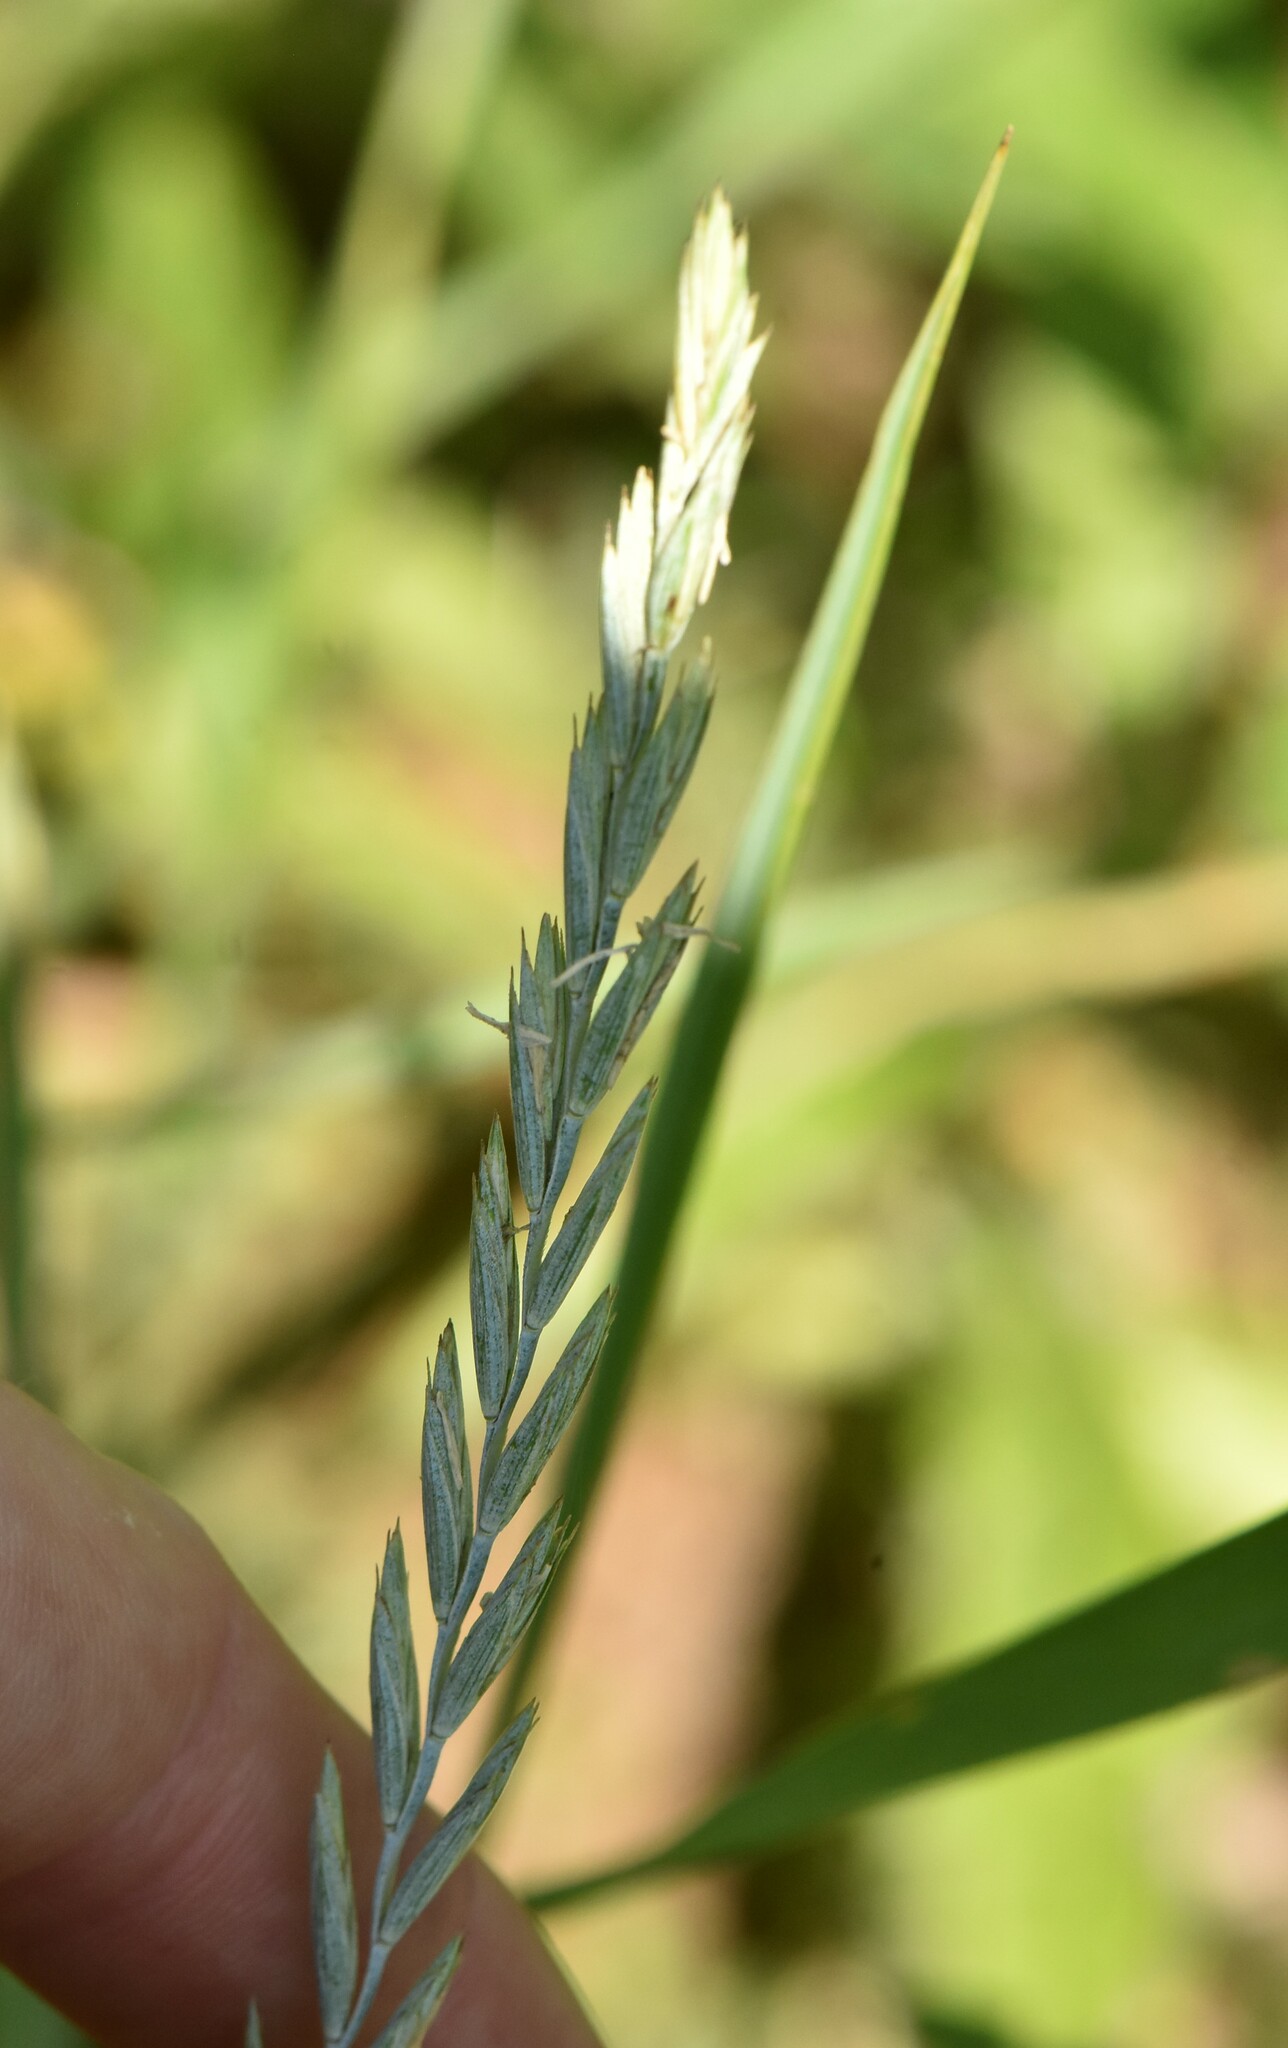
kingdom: Plantae
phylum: Tracheophyta
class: Liliopsida
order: Poales
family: Poaceae
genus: Elymus
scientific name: Elymus repens
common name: Quackgrass
